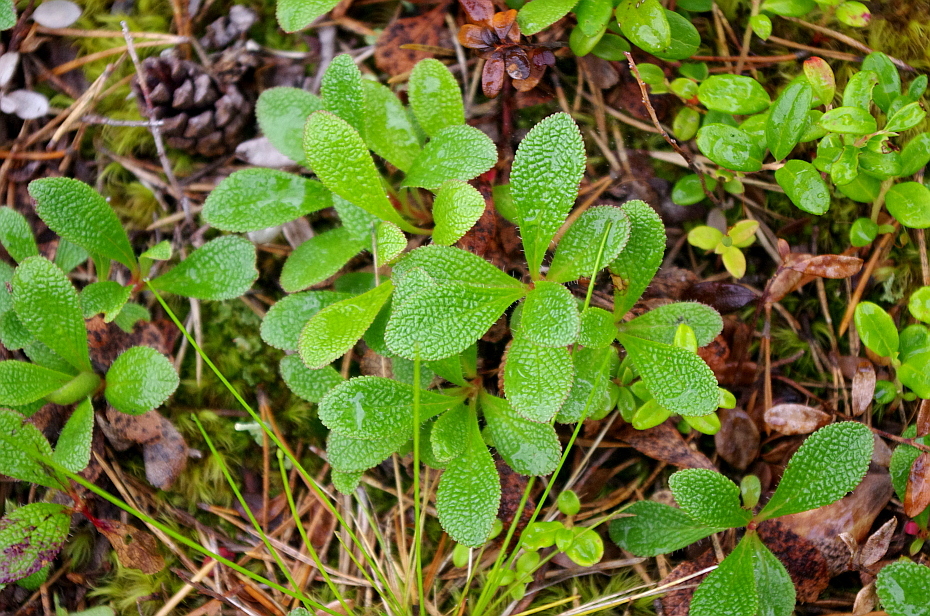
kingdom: Plantae
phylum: Tracheophyta
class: Magnoliopsida
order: Ericales
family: Ericaceae
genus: Arctostaphylos
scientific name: Arctostaphylos alpinus
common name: Alpine bearberry
